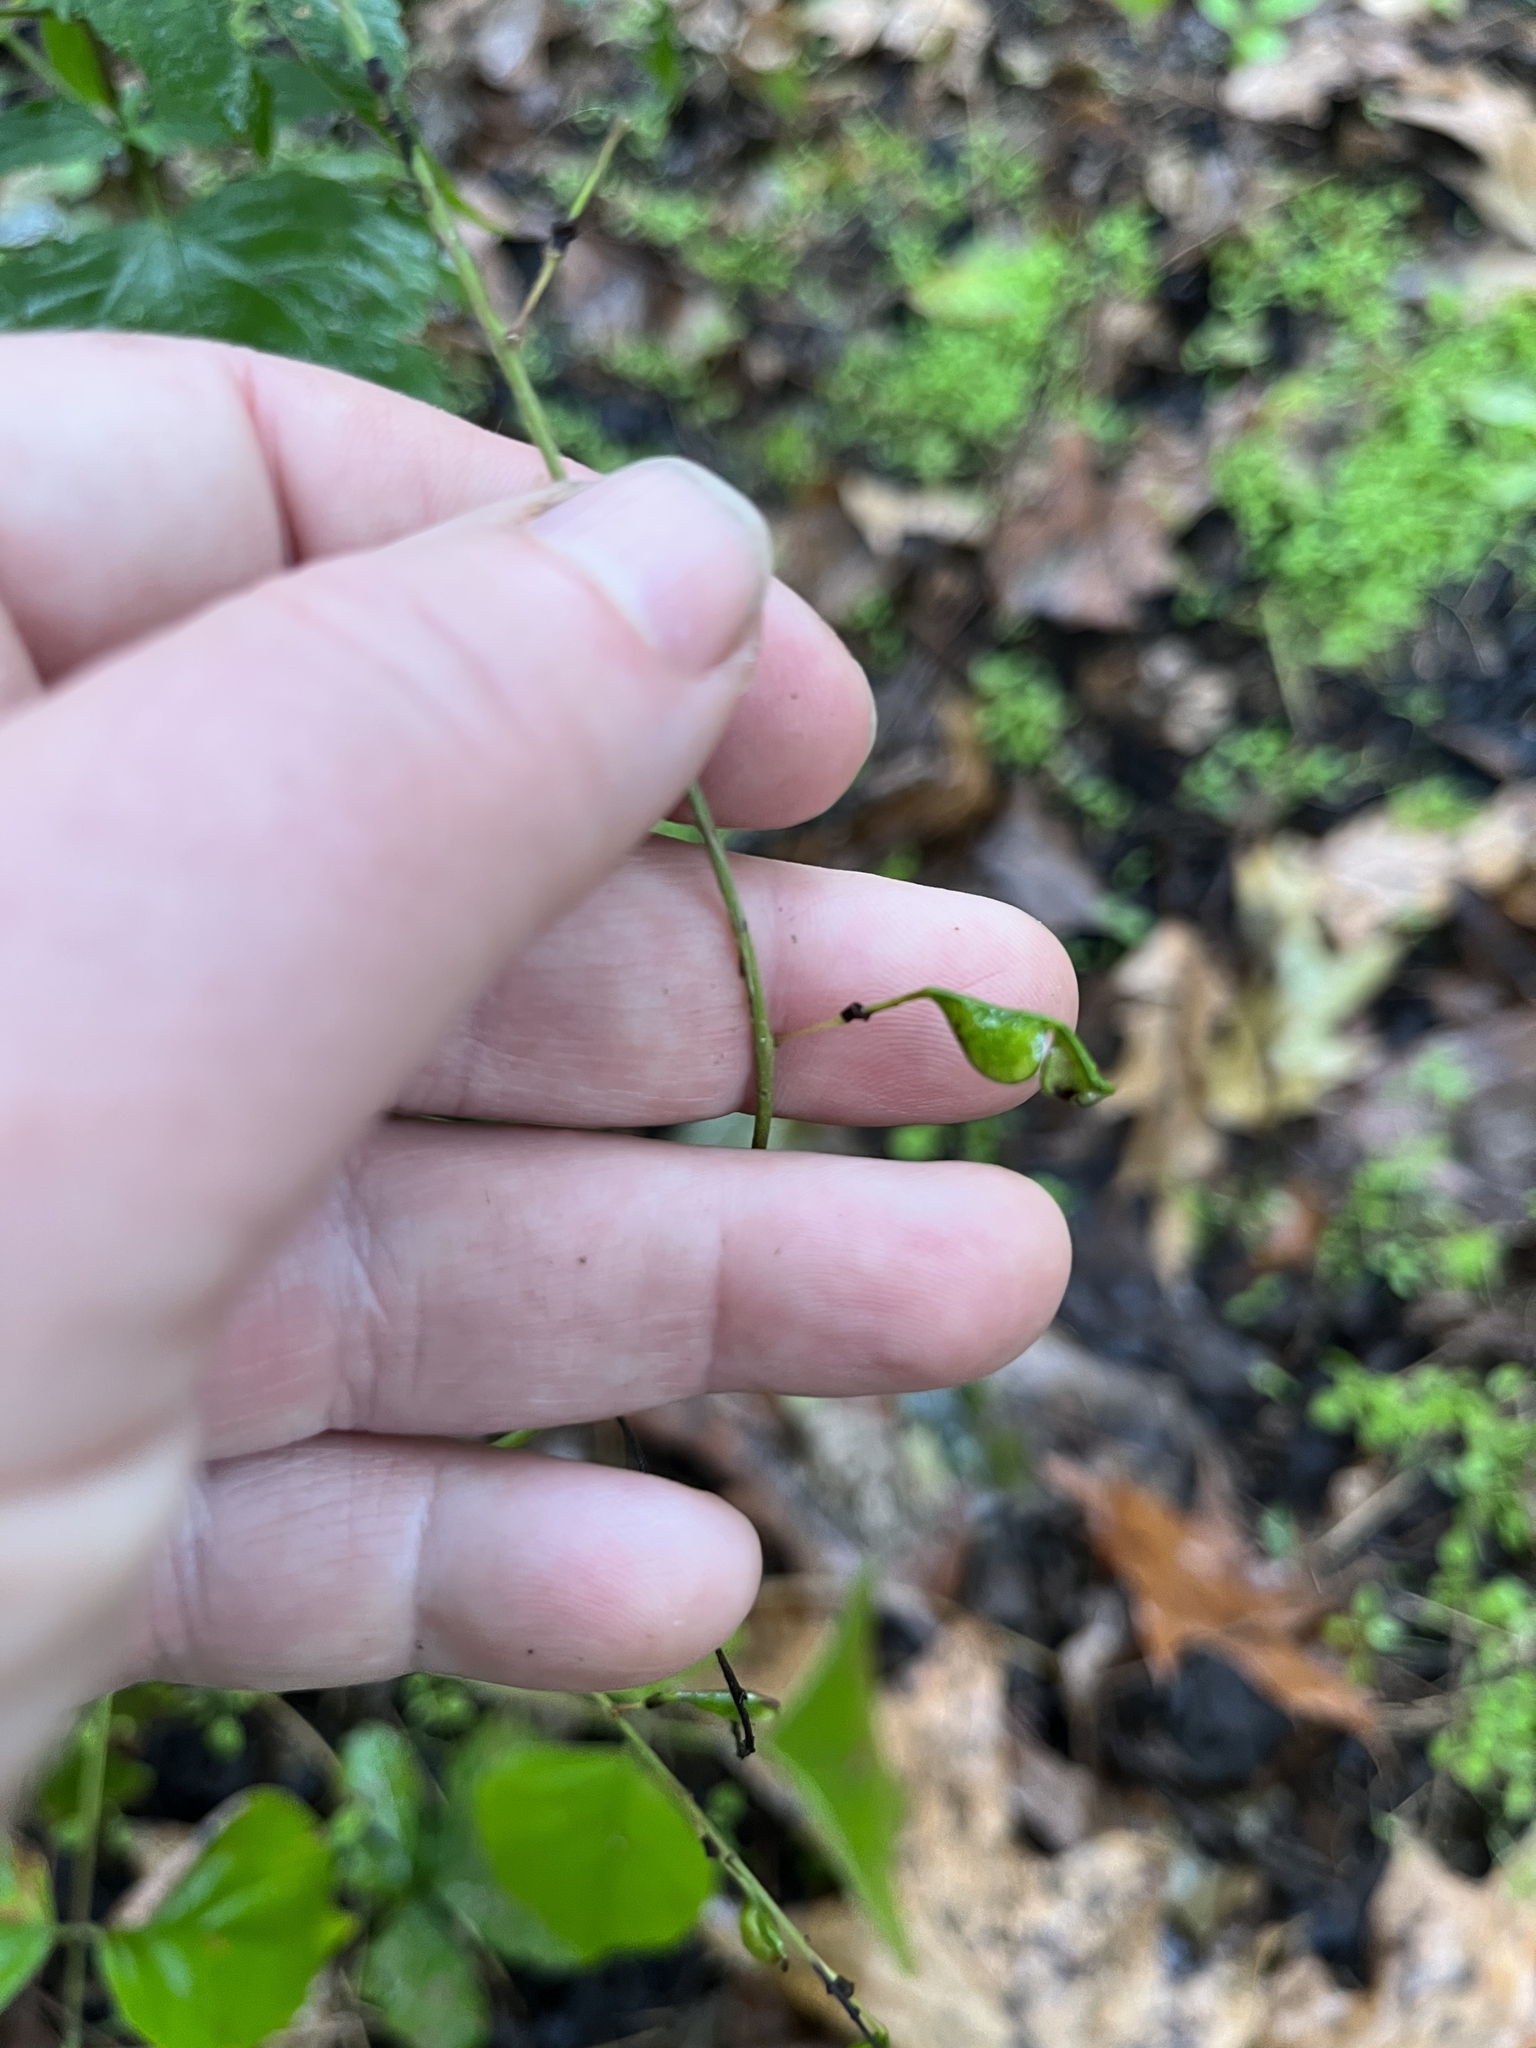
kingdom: Plantae
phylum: Tracheophyta
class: Magnoliopsida
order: Fabales
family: Fabaceae
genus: Hylodesmum
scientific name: Hylodesmum glutinosum
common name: Clustered-leaved tick-trefoil
